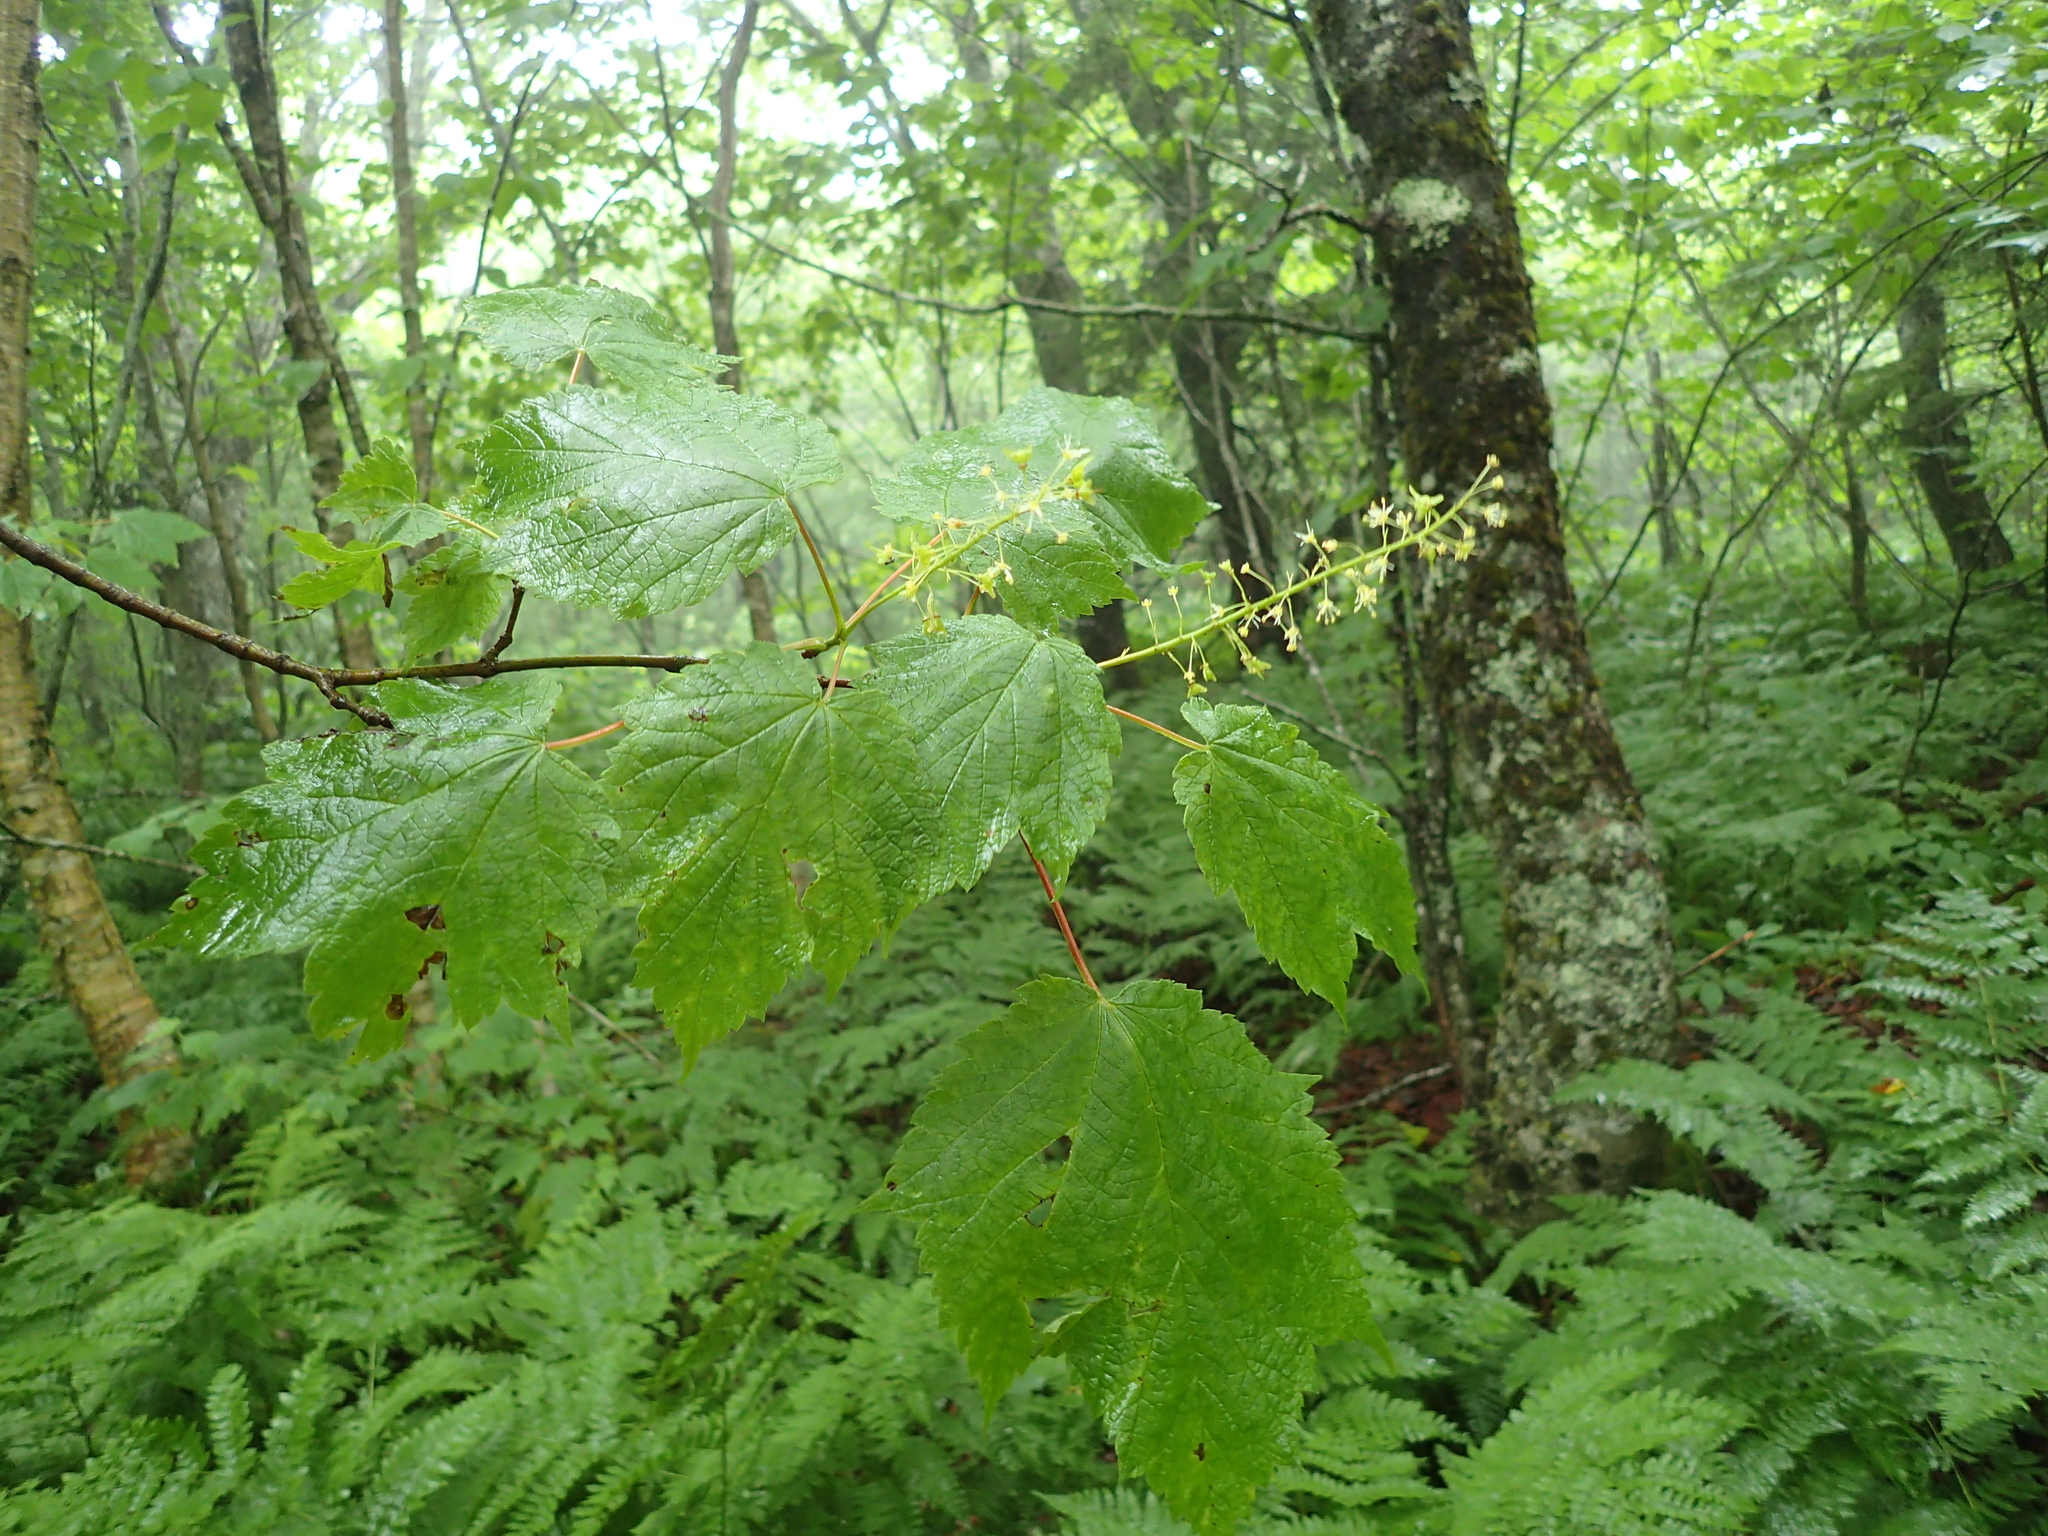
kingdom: Plantae
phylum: Tracheophyta
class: Magnoliopsida
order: Sapindales
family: Sapindaceae
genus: Acer
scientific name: Acer spicatum
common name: Mountain maple
